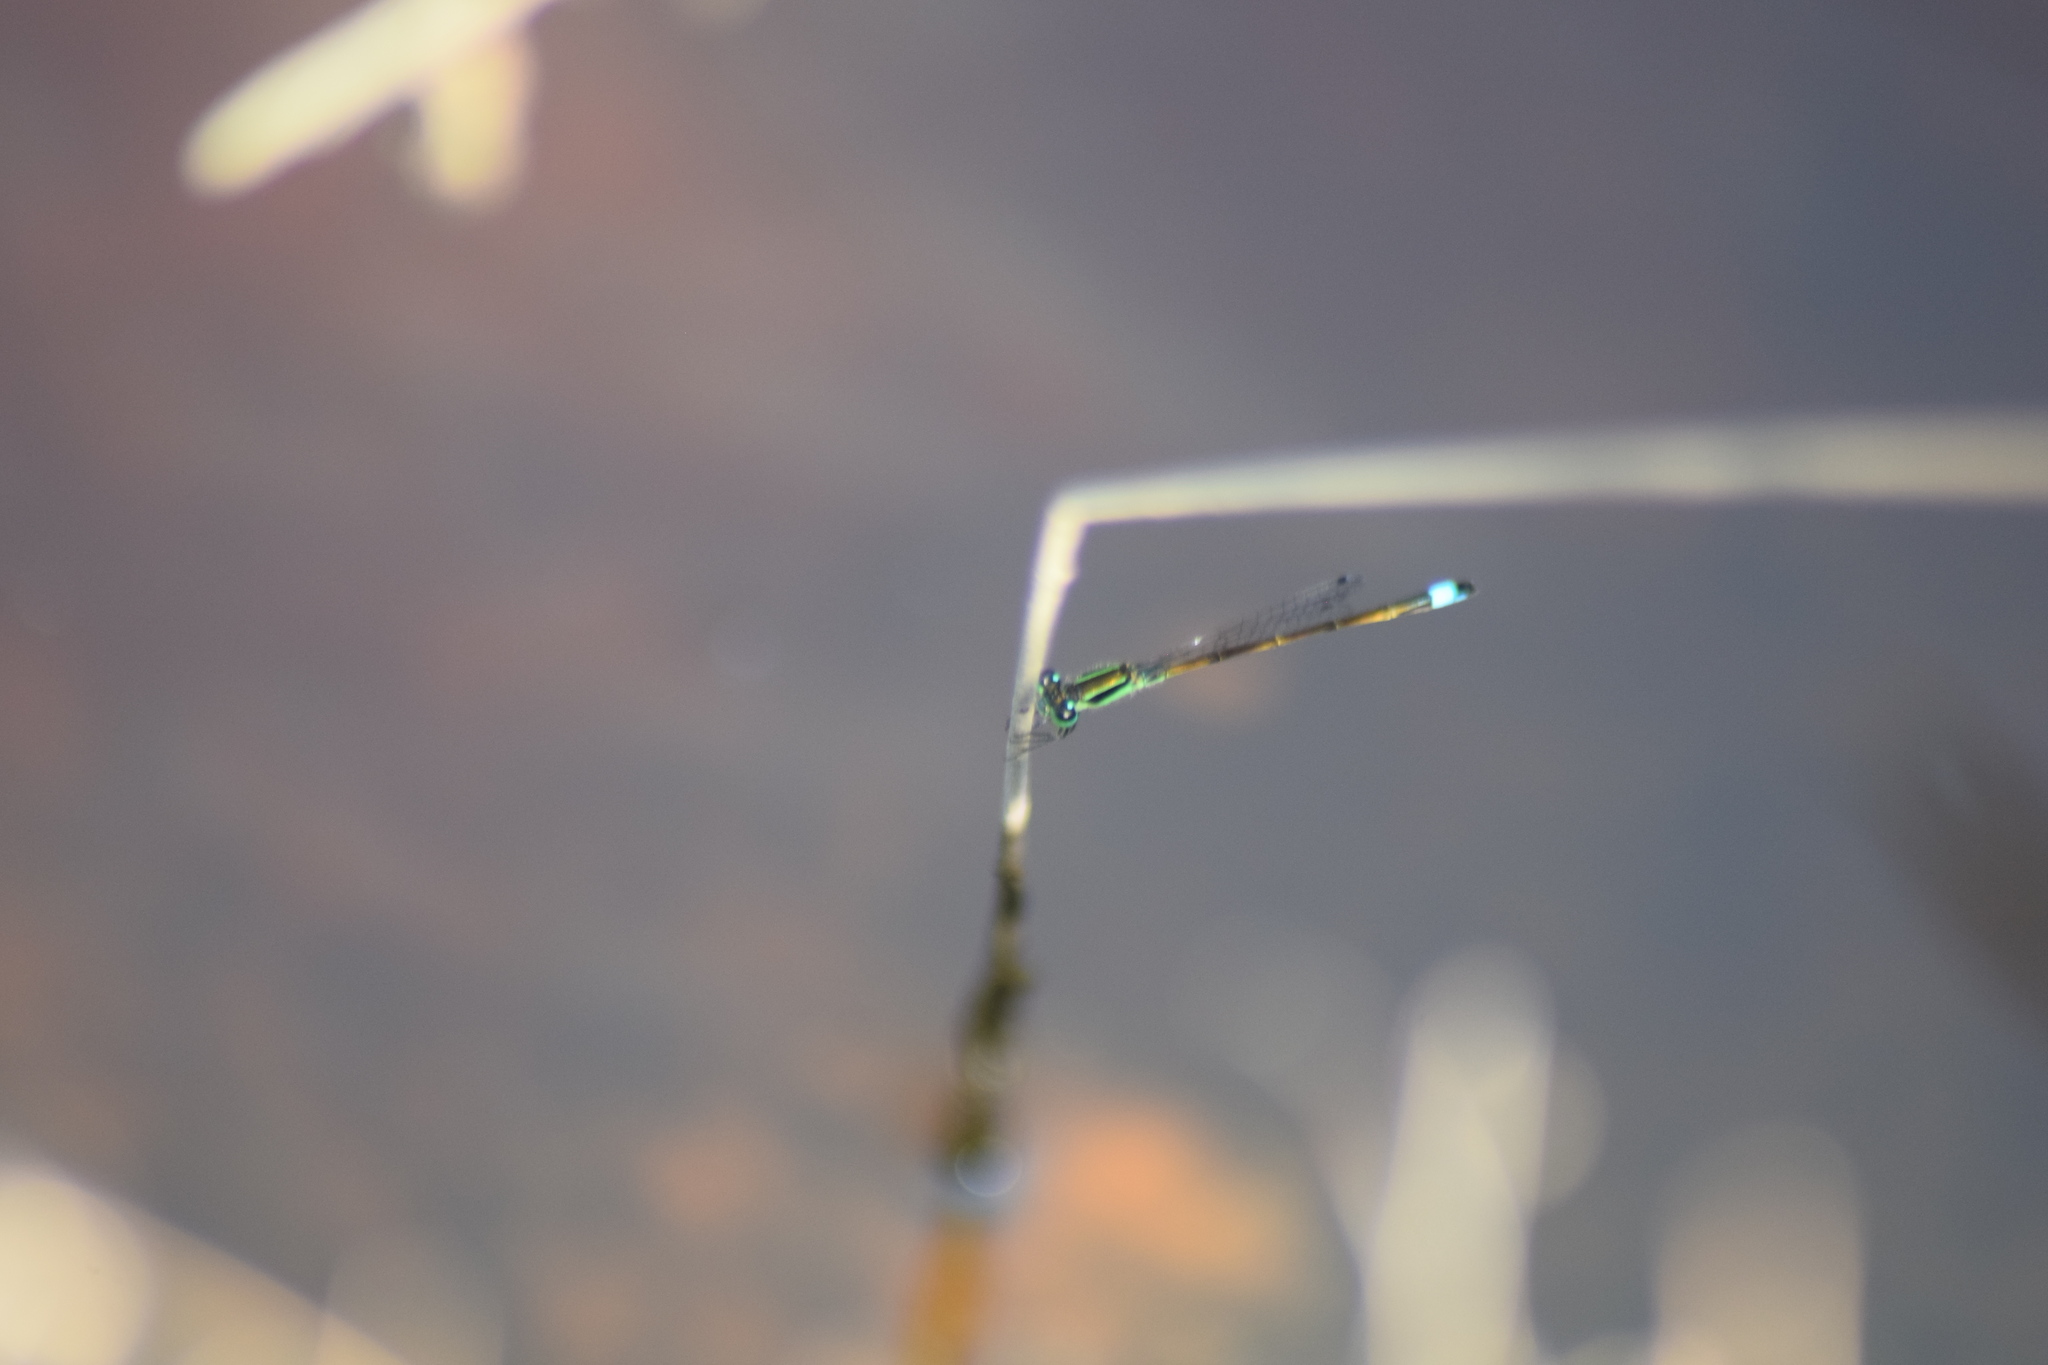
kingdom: Animalia
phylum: Arthropoda
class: Insecta
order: Odonata
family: Coenagrionidae
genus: Ischnura
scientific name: Ischnura ramburii
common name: Rambur's forktail
